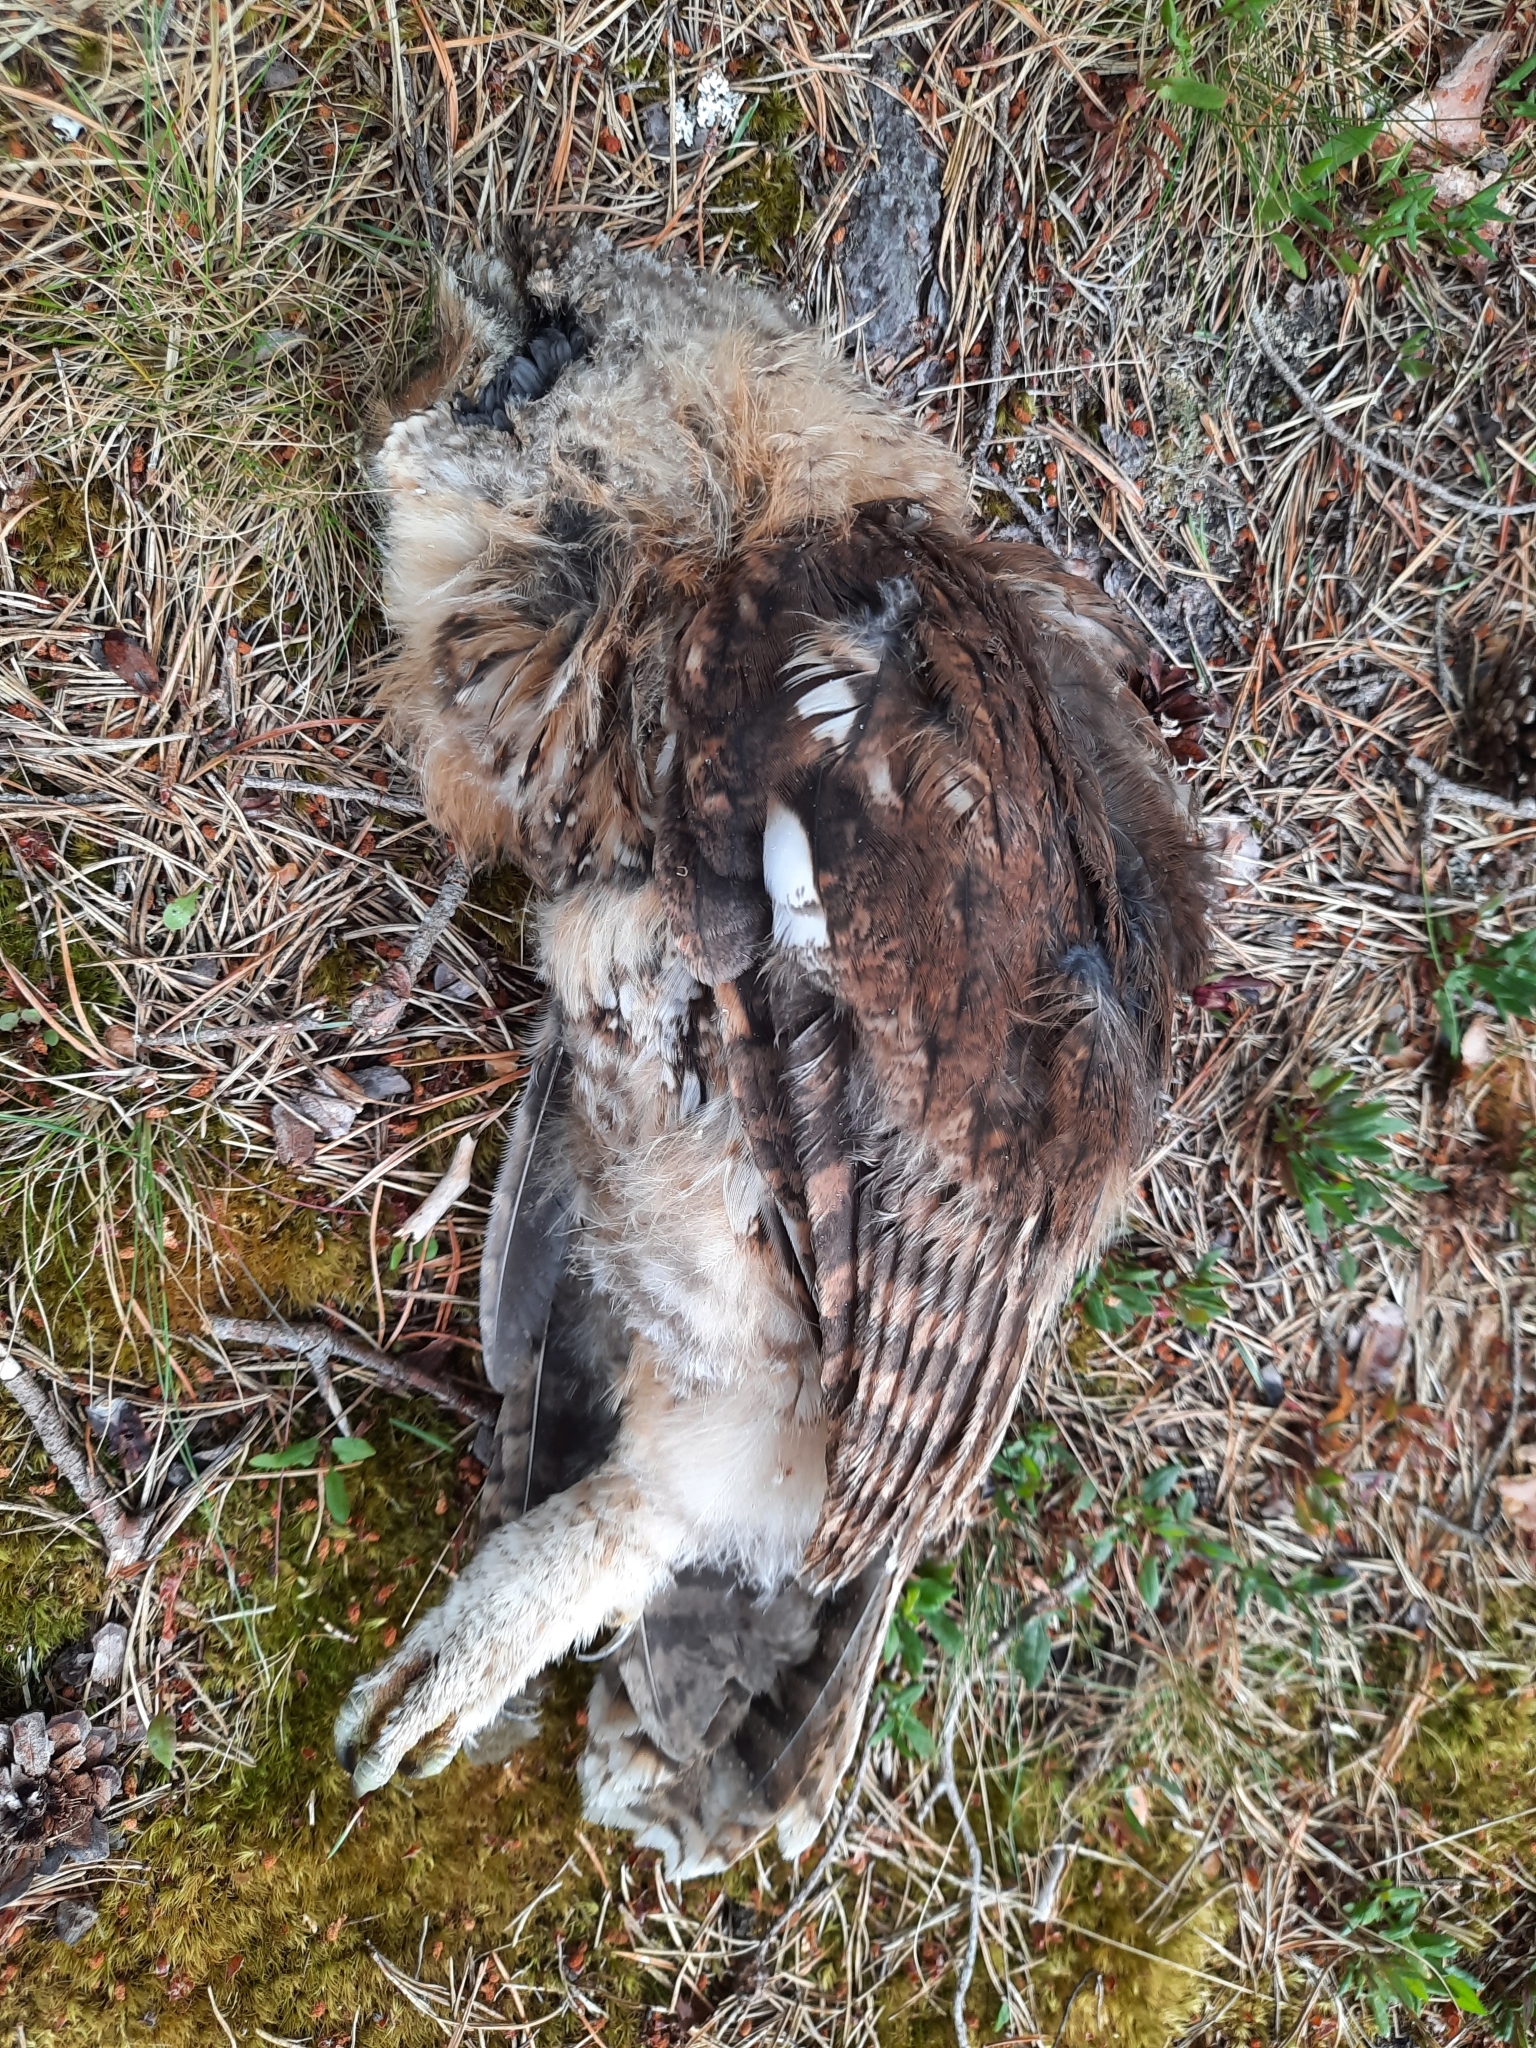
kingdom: Animalia
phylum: Chordata
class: Aves
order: Strigiformes
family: Strigidae
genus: Strix
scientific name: Strix aluco
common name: Tawny owl
